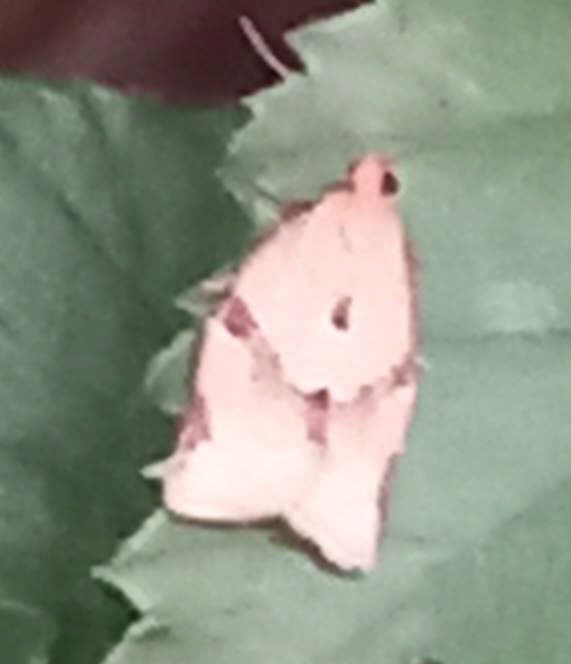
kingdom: Animalia
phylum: Arthropoda
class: Insecta
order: Lepidoptera
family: Tortricidae
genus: Clepsis
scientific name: Clepsis consimilana
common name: Privet tortrix
